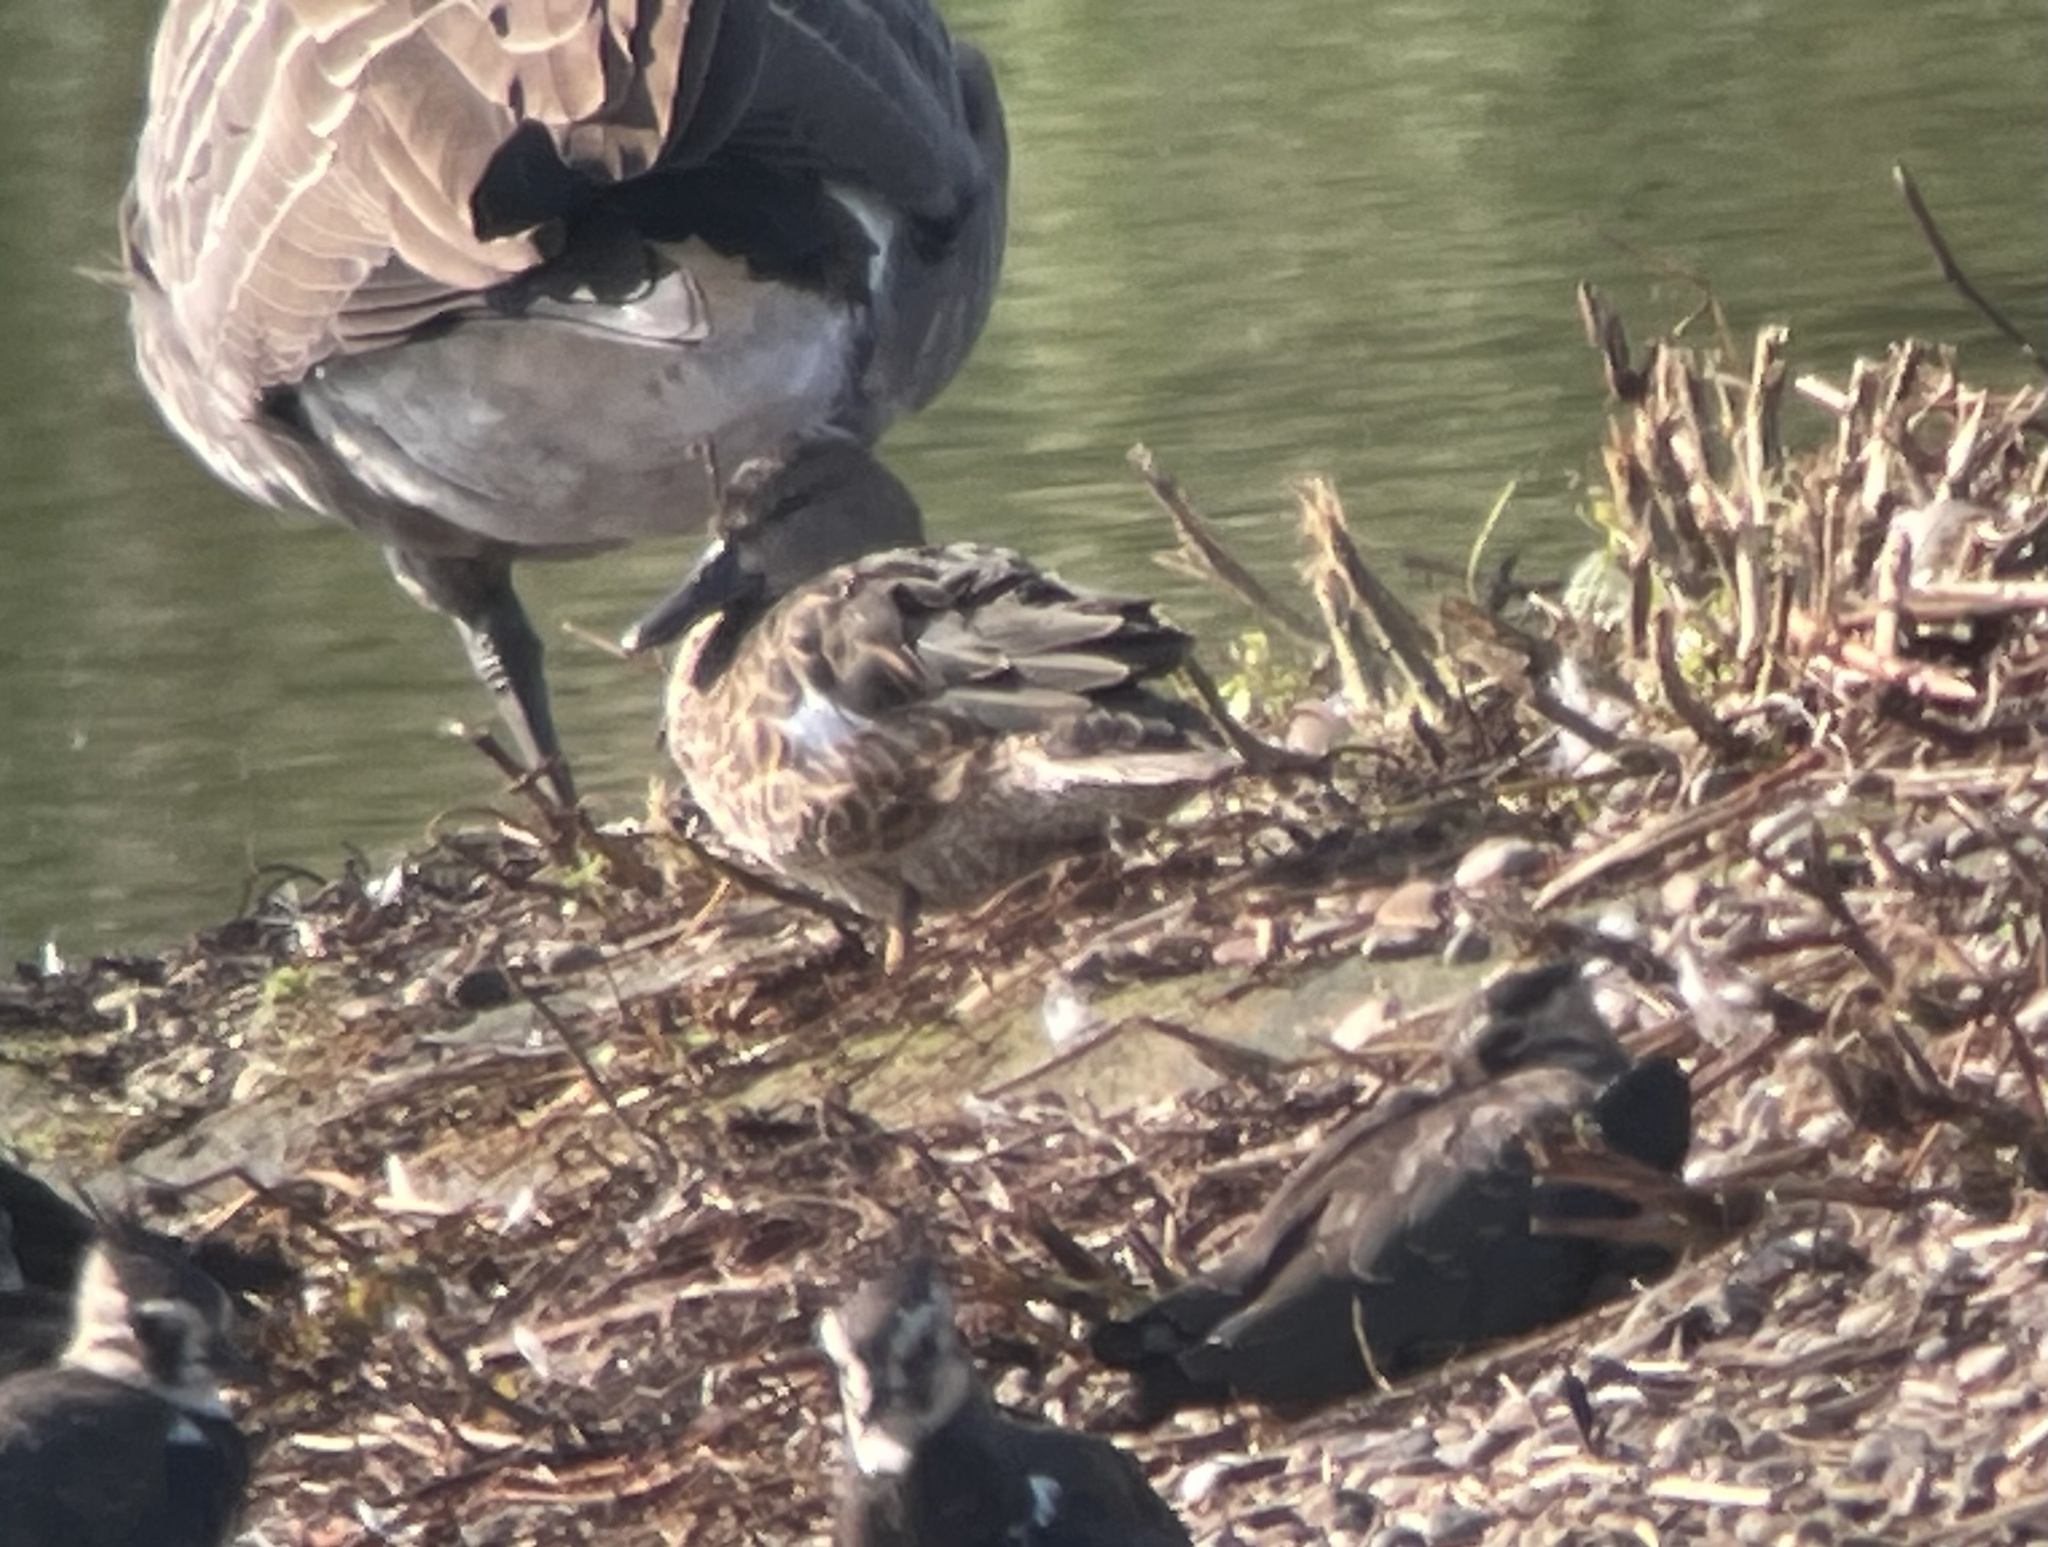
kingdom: Animalia
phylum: Chordata
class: Aves
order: Anseriformes
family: Anatidae
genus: Spatula
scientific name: Spatula discors
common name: Blue-winged teal
